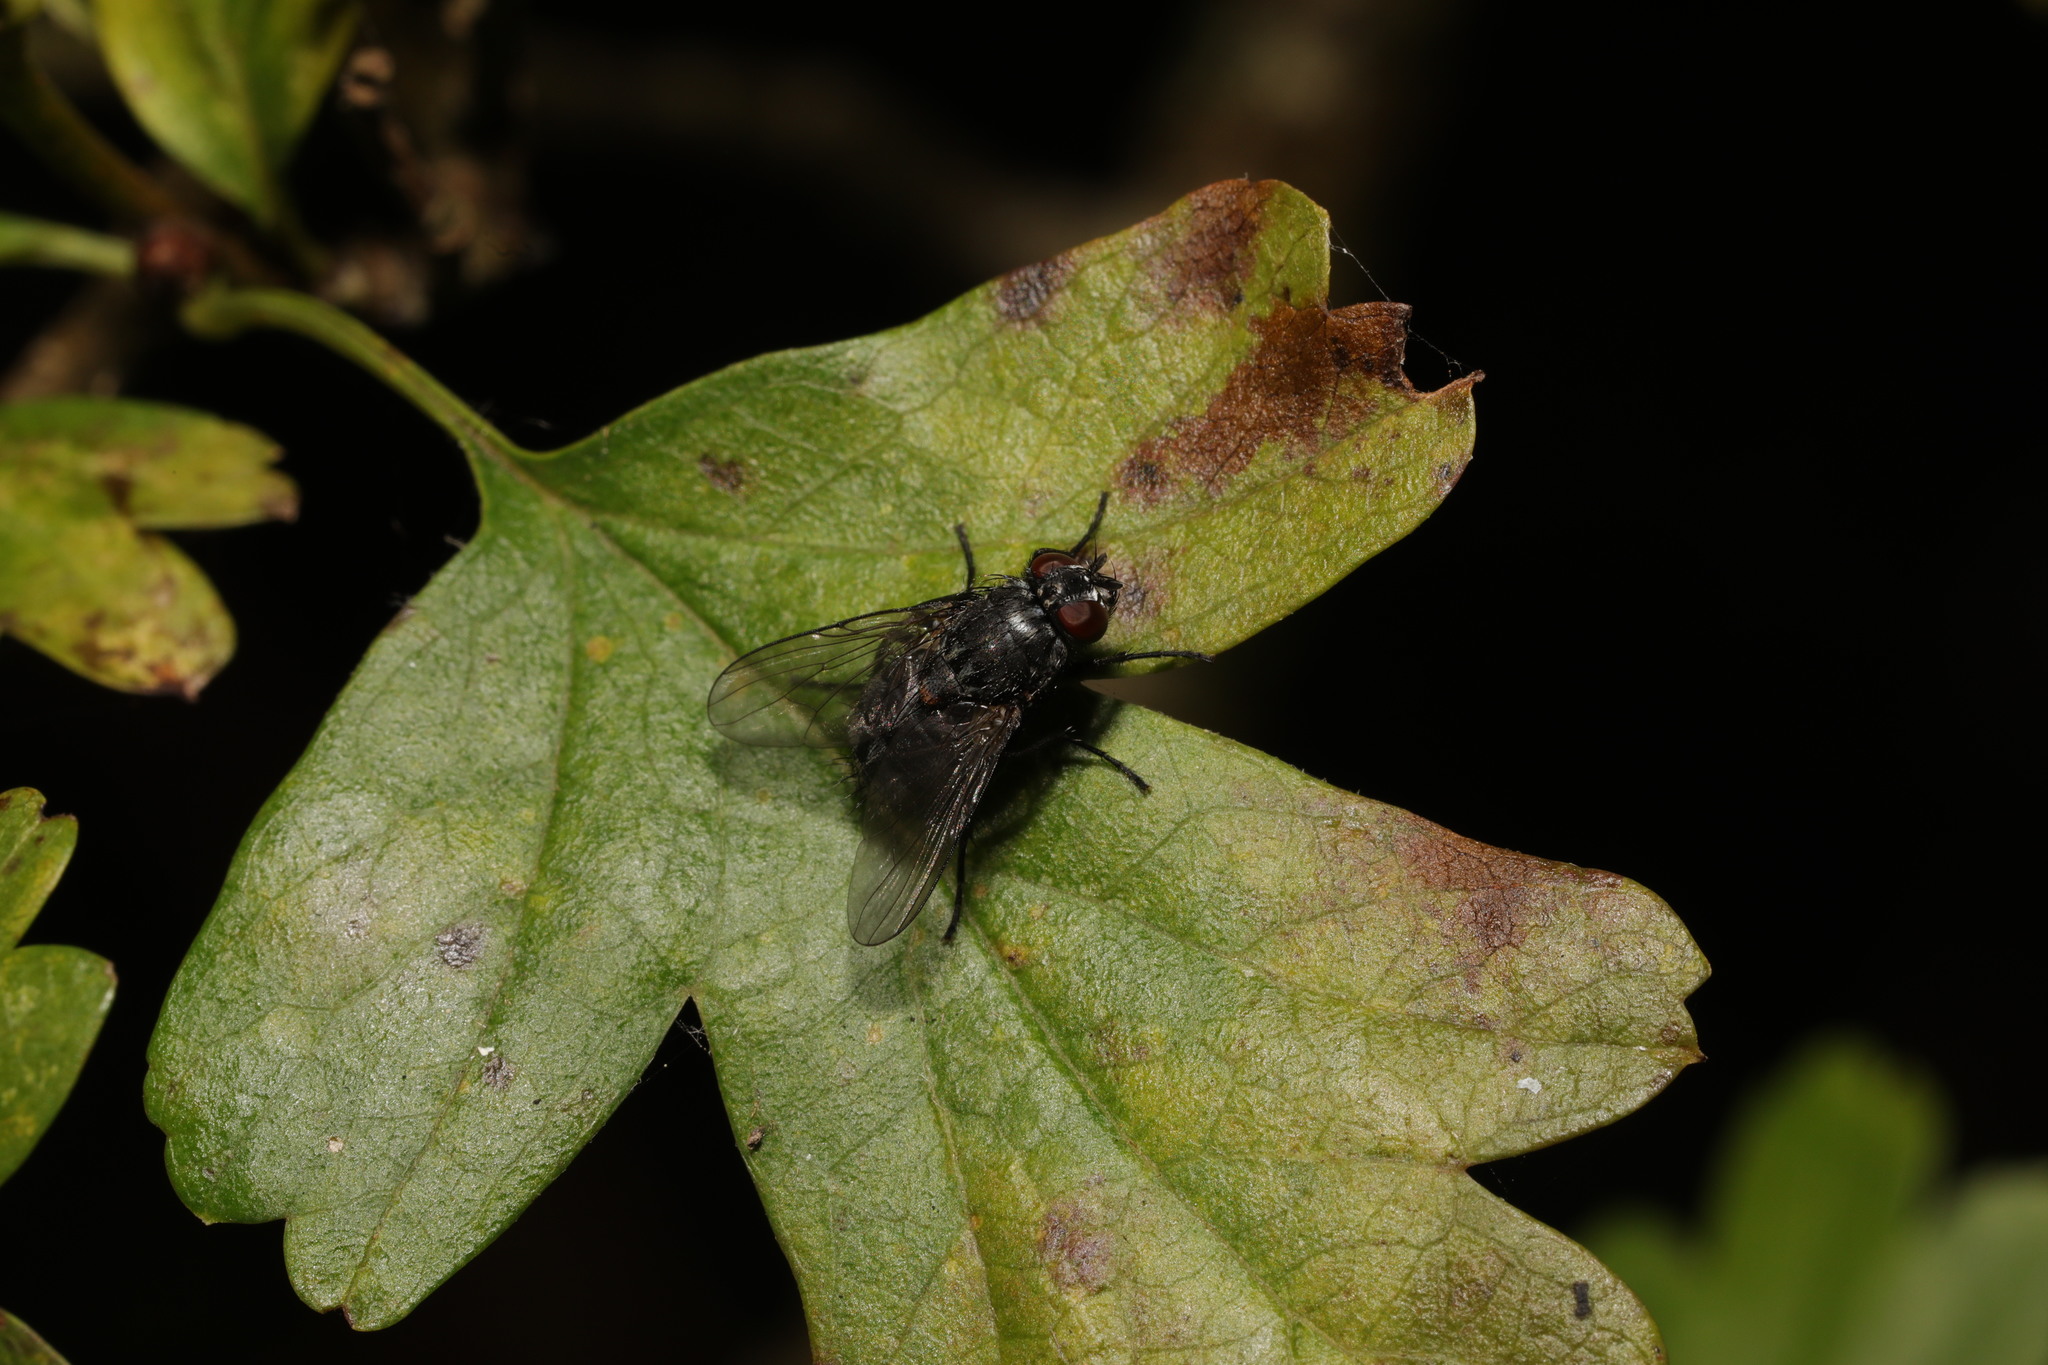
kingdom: Animalia
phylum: Arthropoda
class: Insecta
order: Diptera
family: Muscidae
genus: Muscina
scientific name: Muscina levida
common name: House fly
